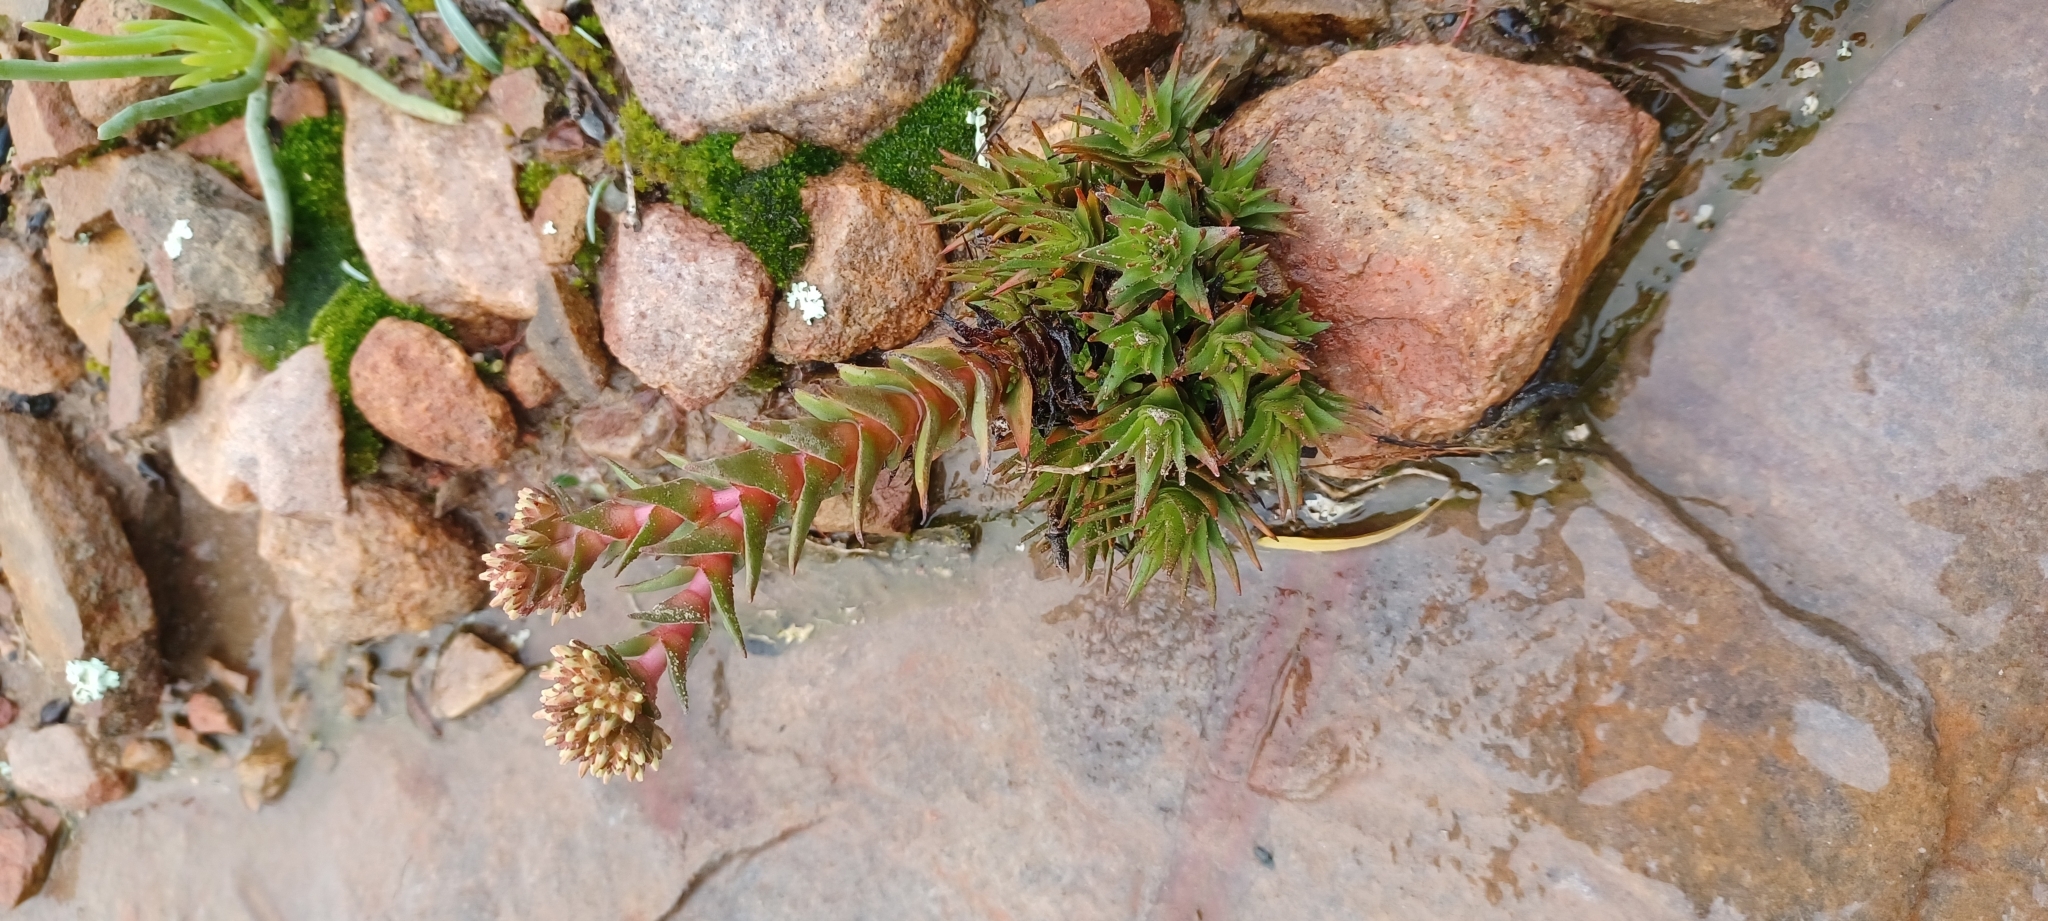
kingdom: Plantae
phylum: Tracheophyta
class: Magnoliopsida
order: Saxifragales
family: Crassulaceae
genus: Crassula
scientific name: Crassula alpestris
